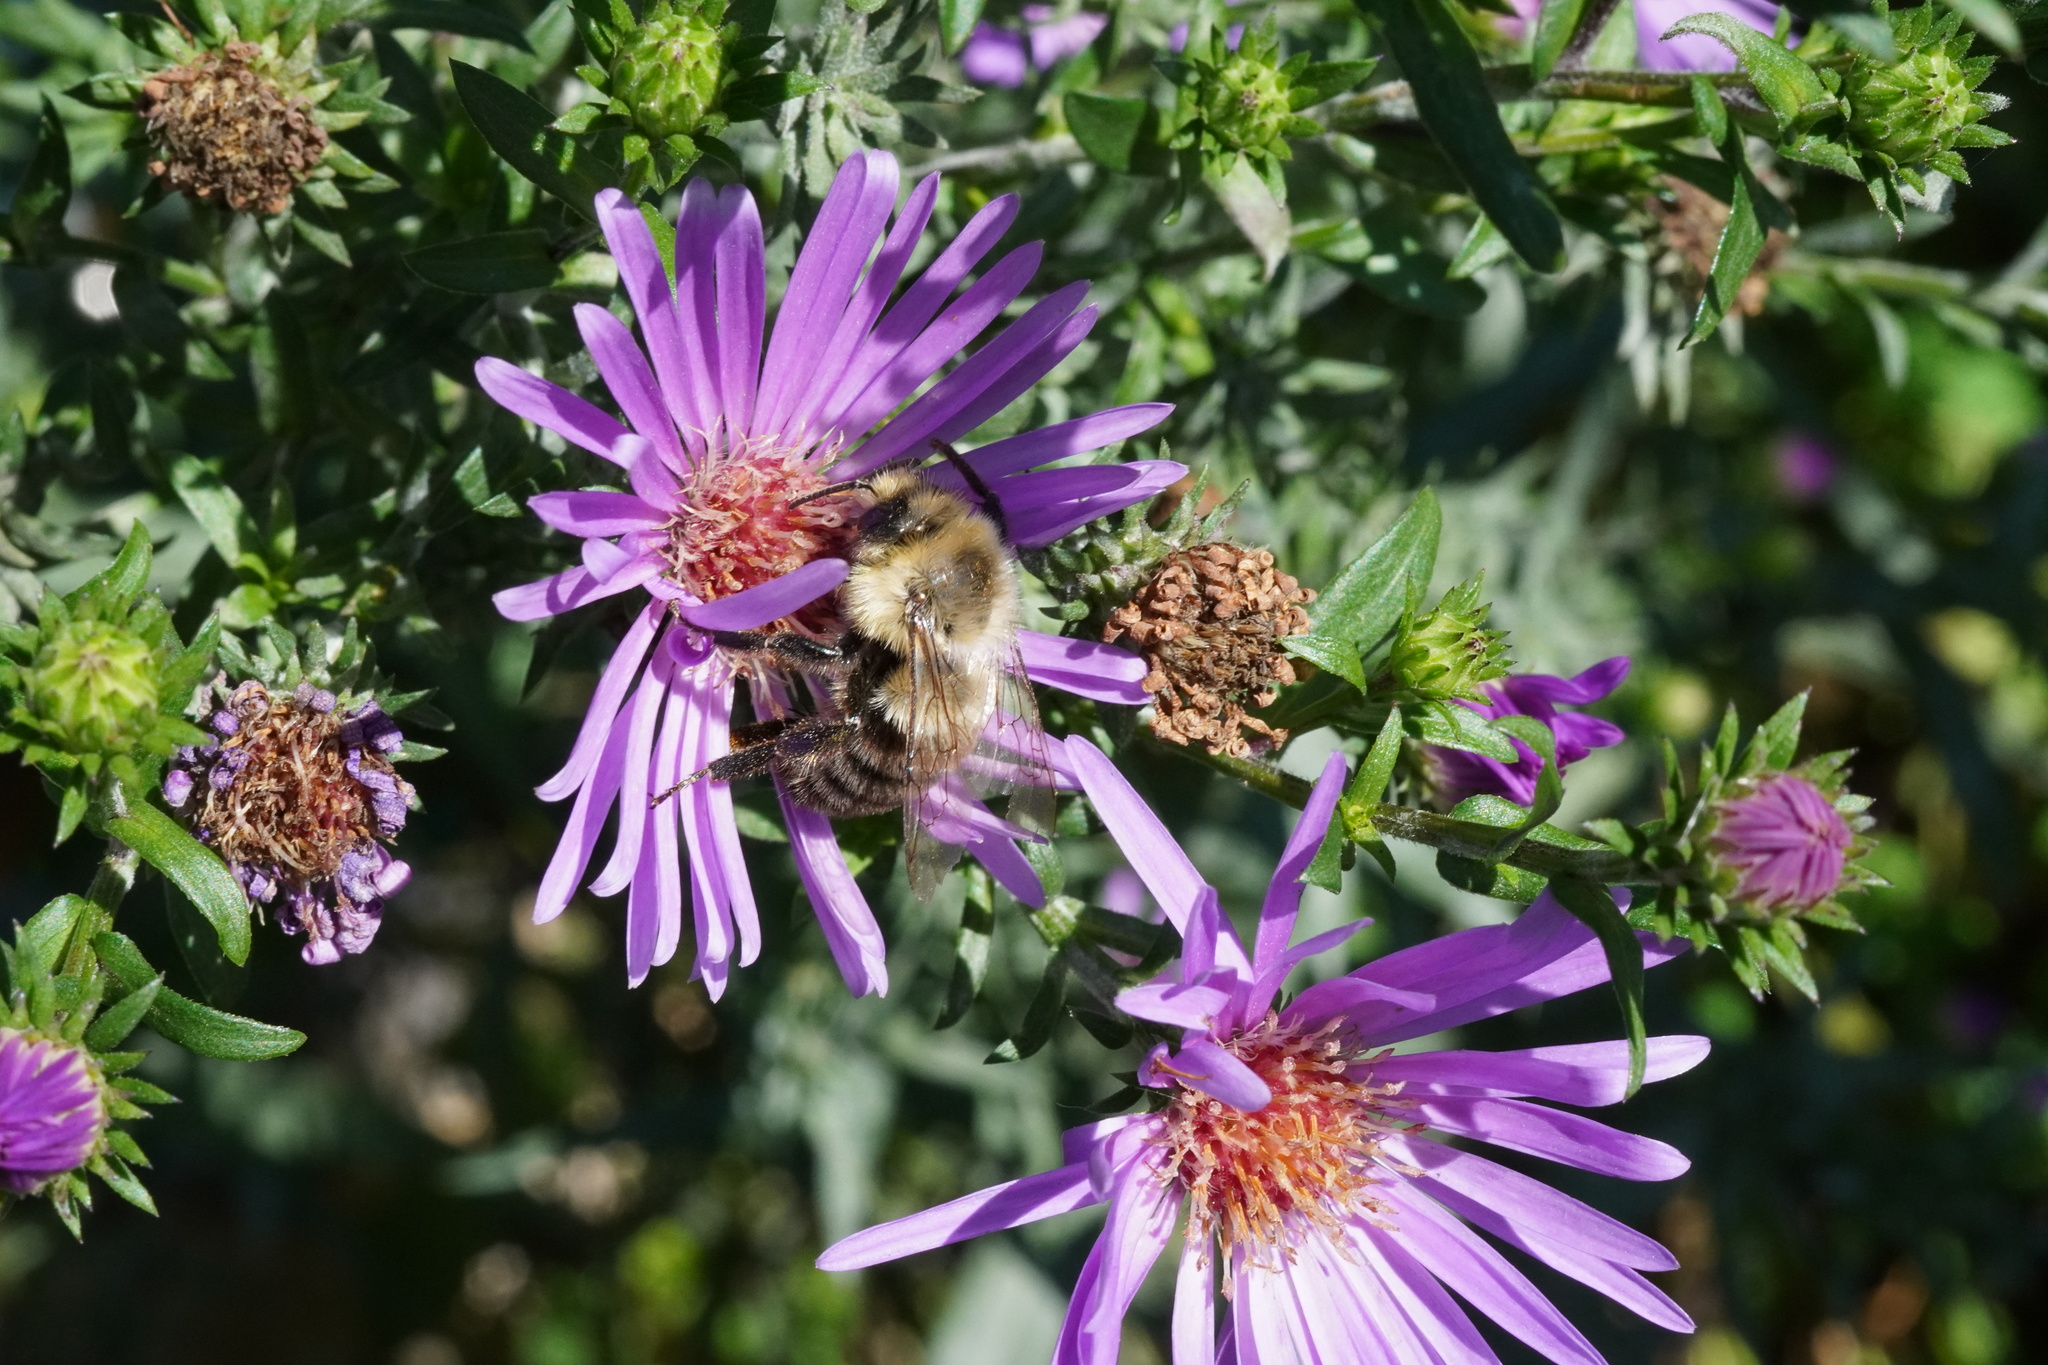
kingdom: Animalia
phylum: Arthropoda
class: Insecta
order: Hymenoptera
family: Apidae
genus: Bombus
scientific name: Bombus impatiens
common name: Common eastern bumble bee
